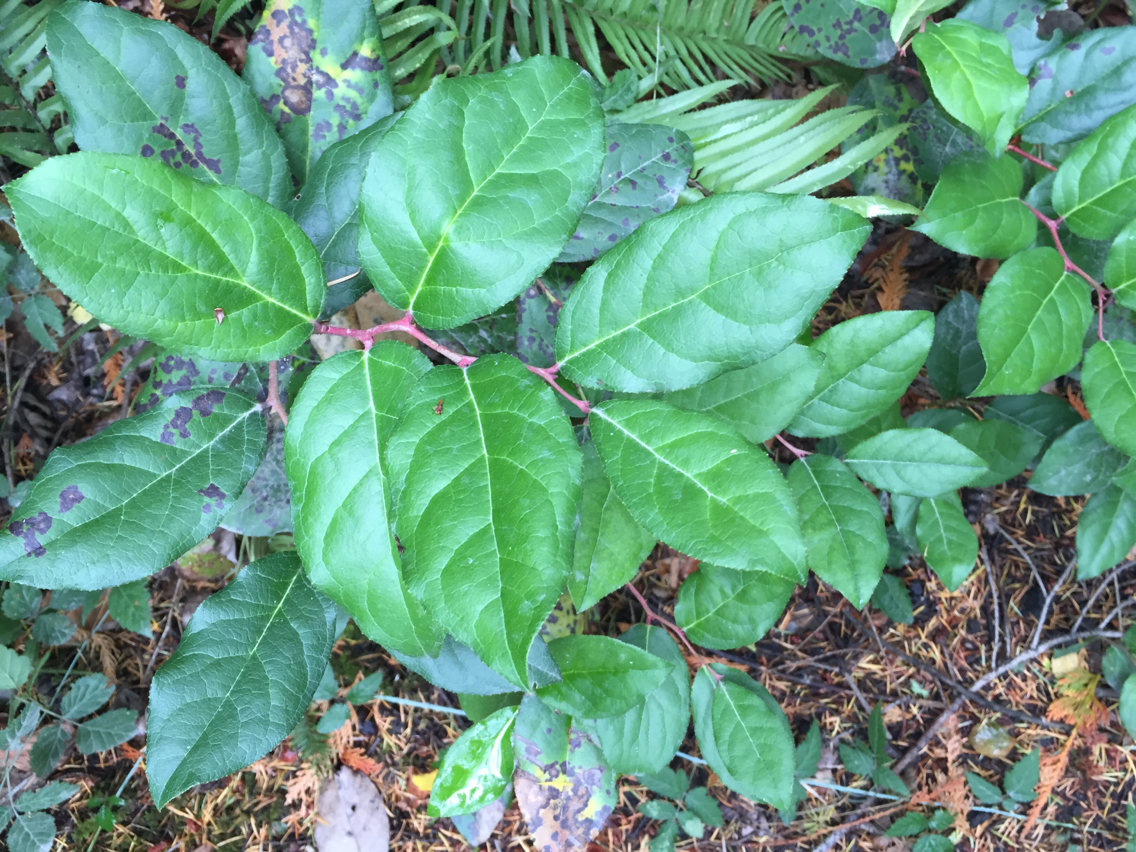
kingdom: Plantae
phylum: Tracheophyta
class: Magnoliopsida
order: Ericales
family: Ericaceae
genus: Gaultheria
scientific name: Gaultheria shallon
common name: Shallon
